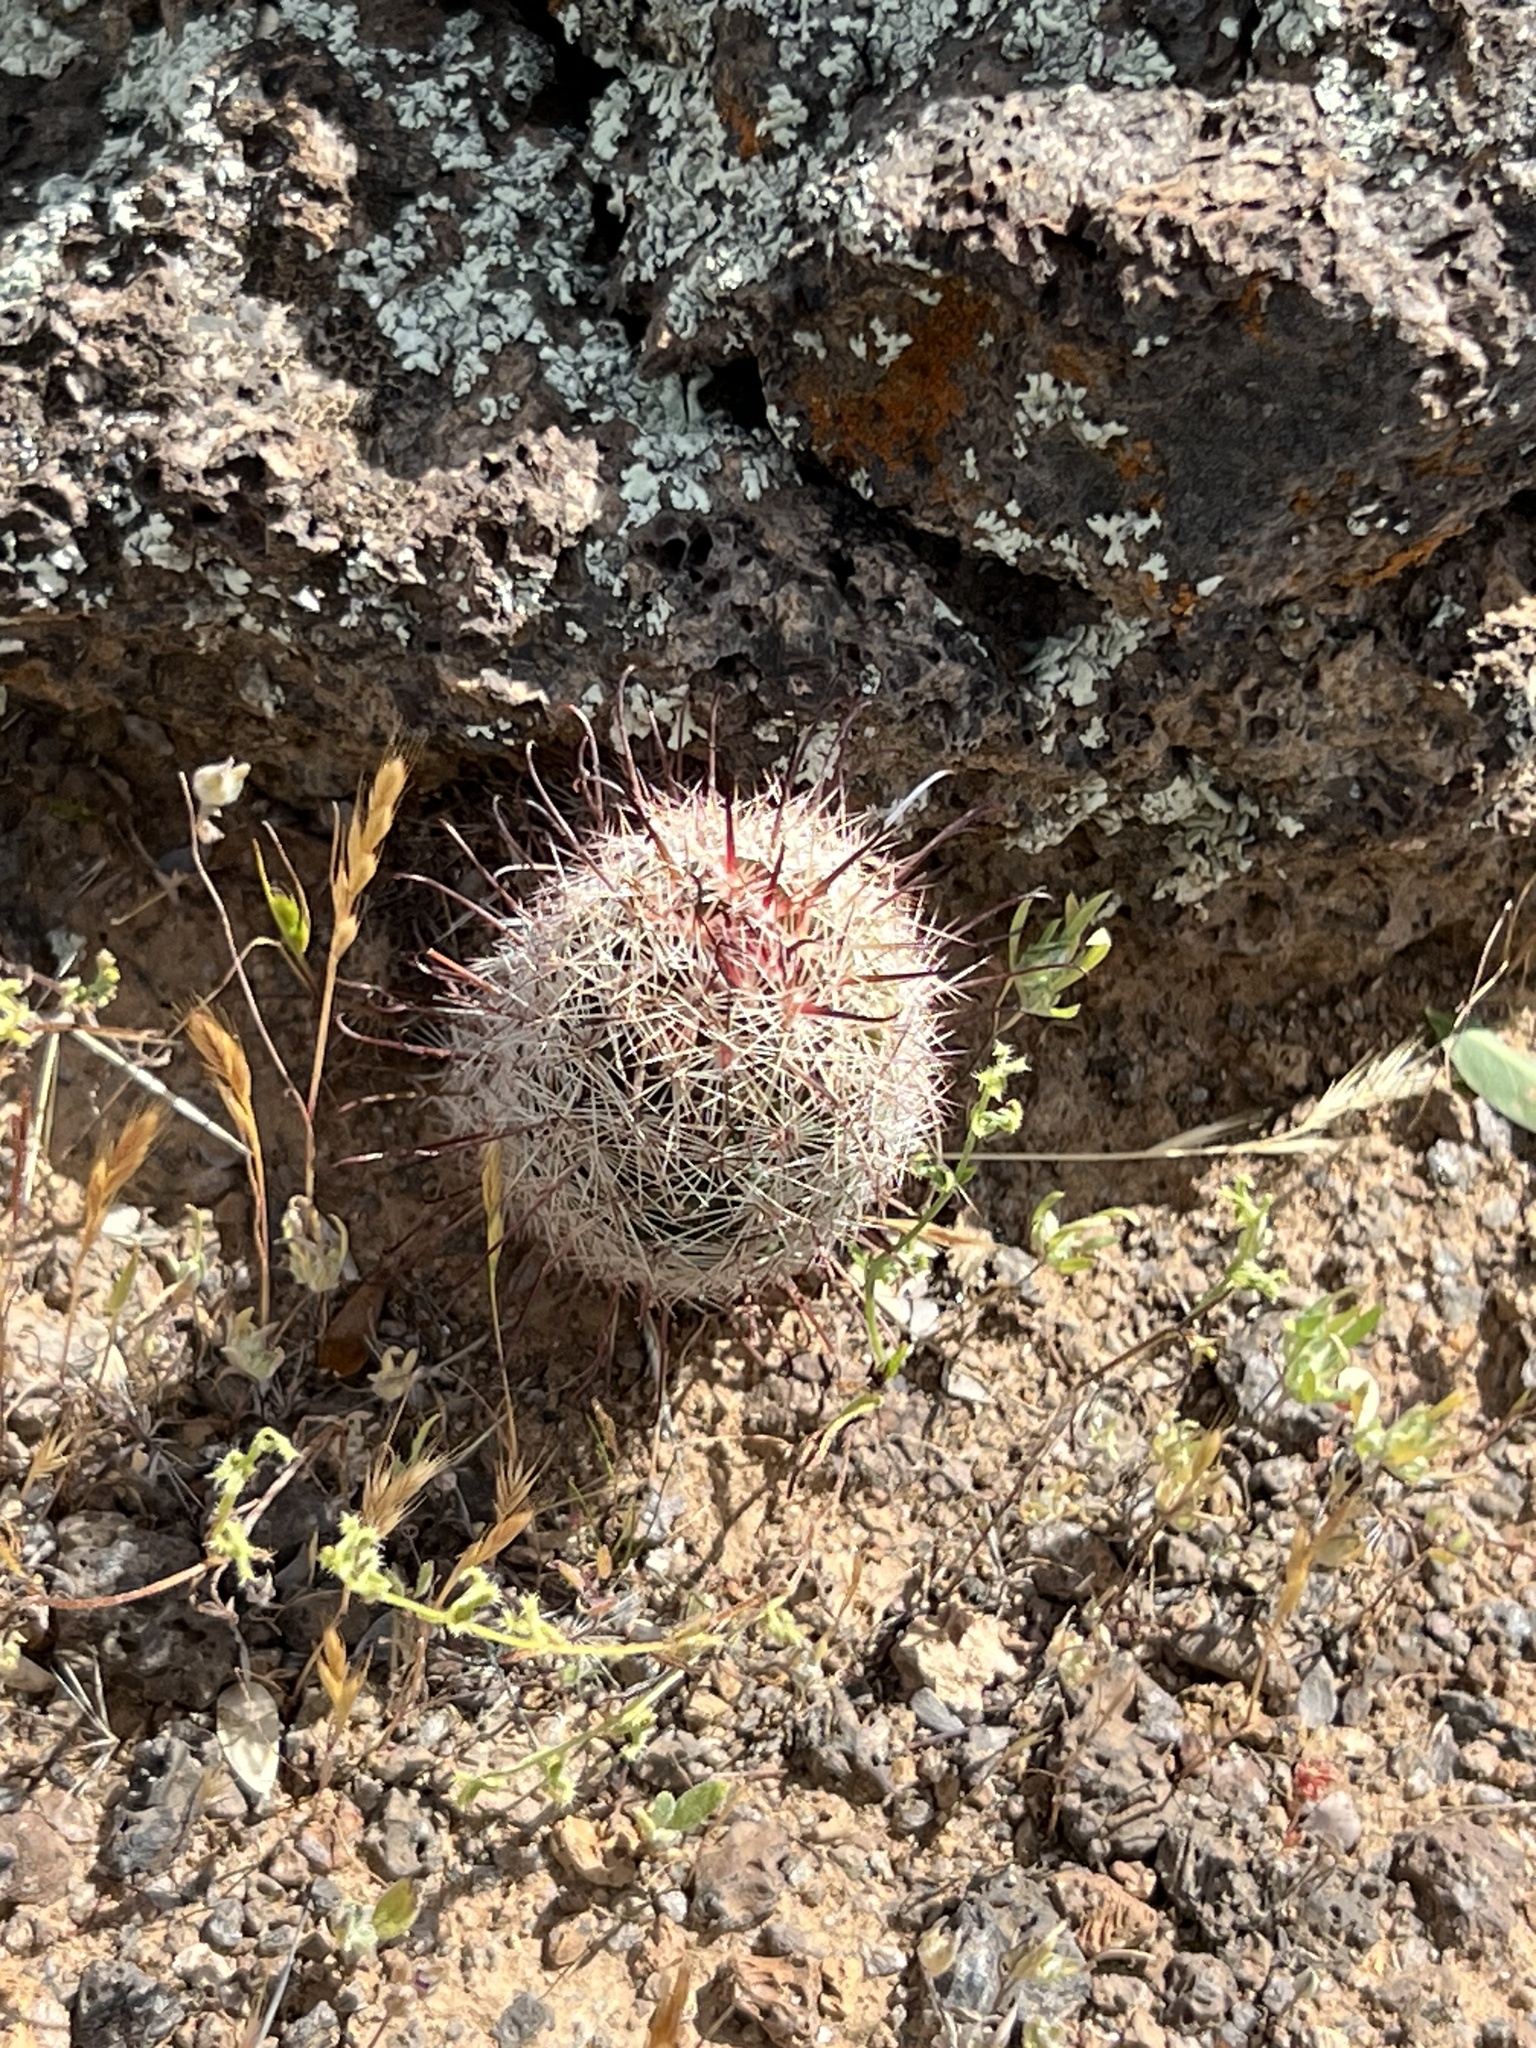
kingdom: Plantae
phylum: Tracheophyta
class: Magnoliopsida
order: Caryophyllales
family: Cactaceae
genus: Cochemiea
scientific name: Cochemiea grahamii
